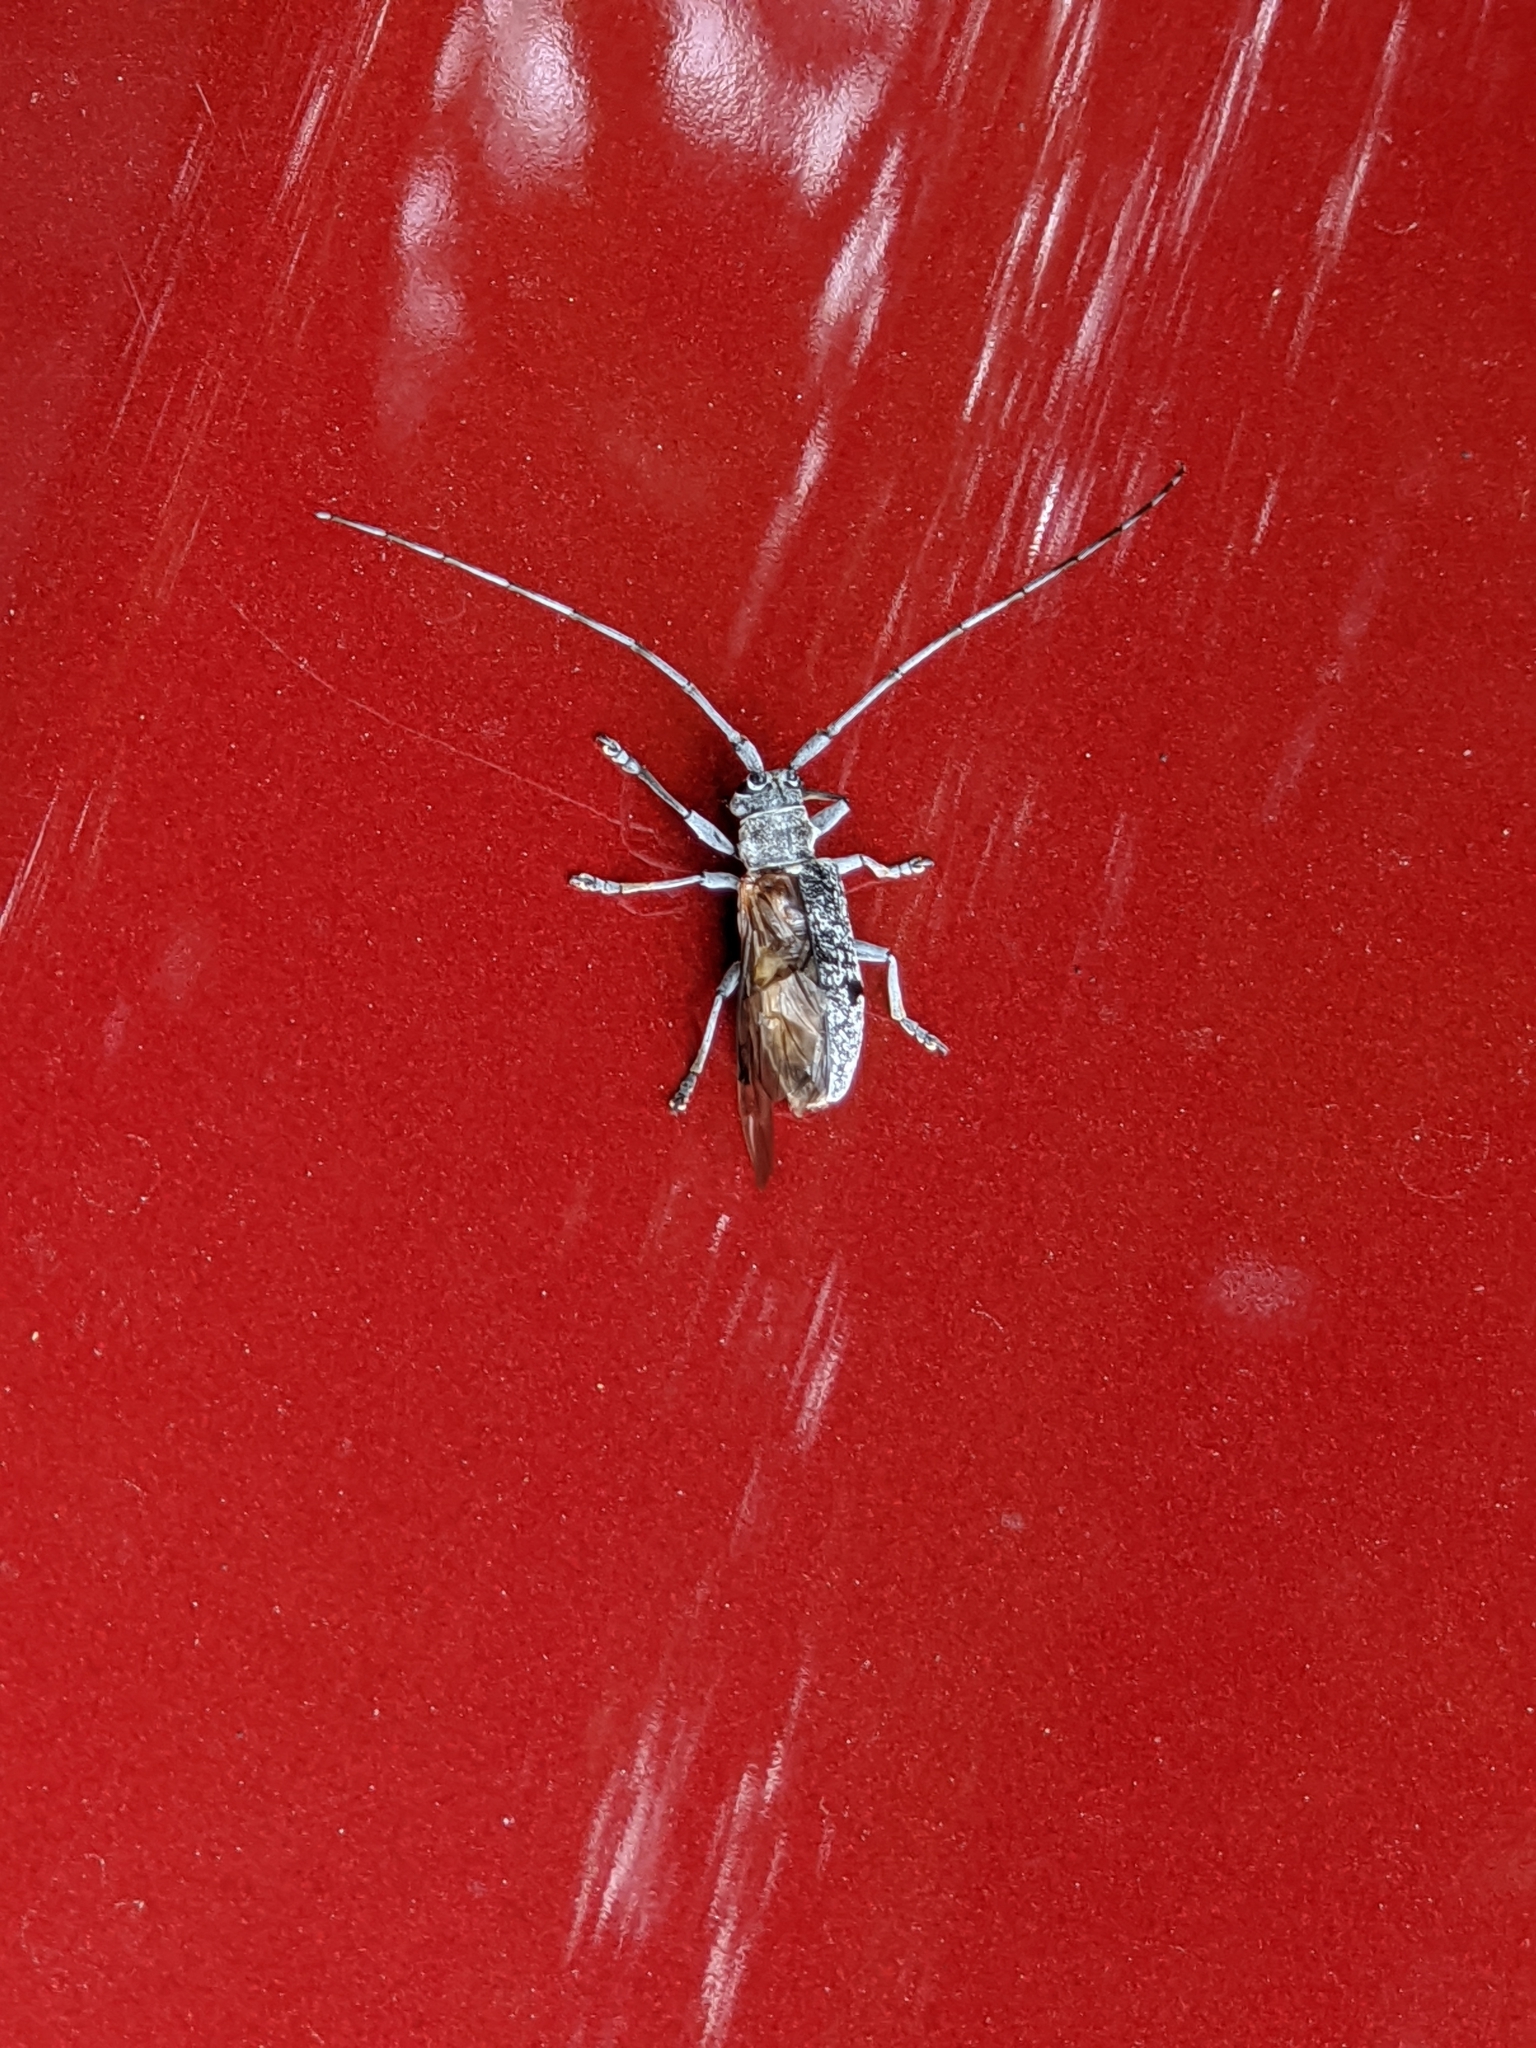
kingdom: Animalia
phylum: Arthropoda
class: Insecta
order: Coleoptera
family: Cerambycidae
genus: Microgoes
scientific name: Microgoes oculatus
